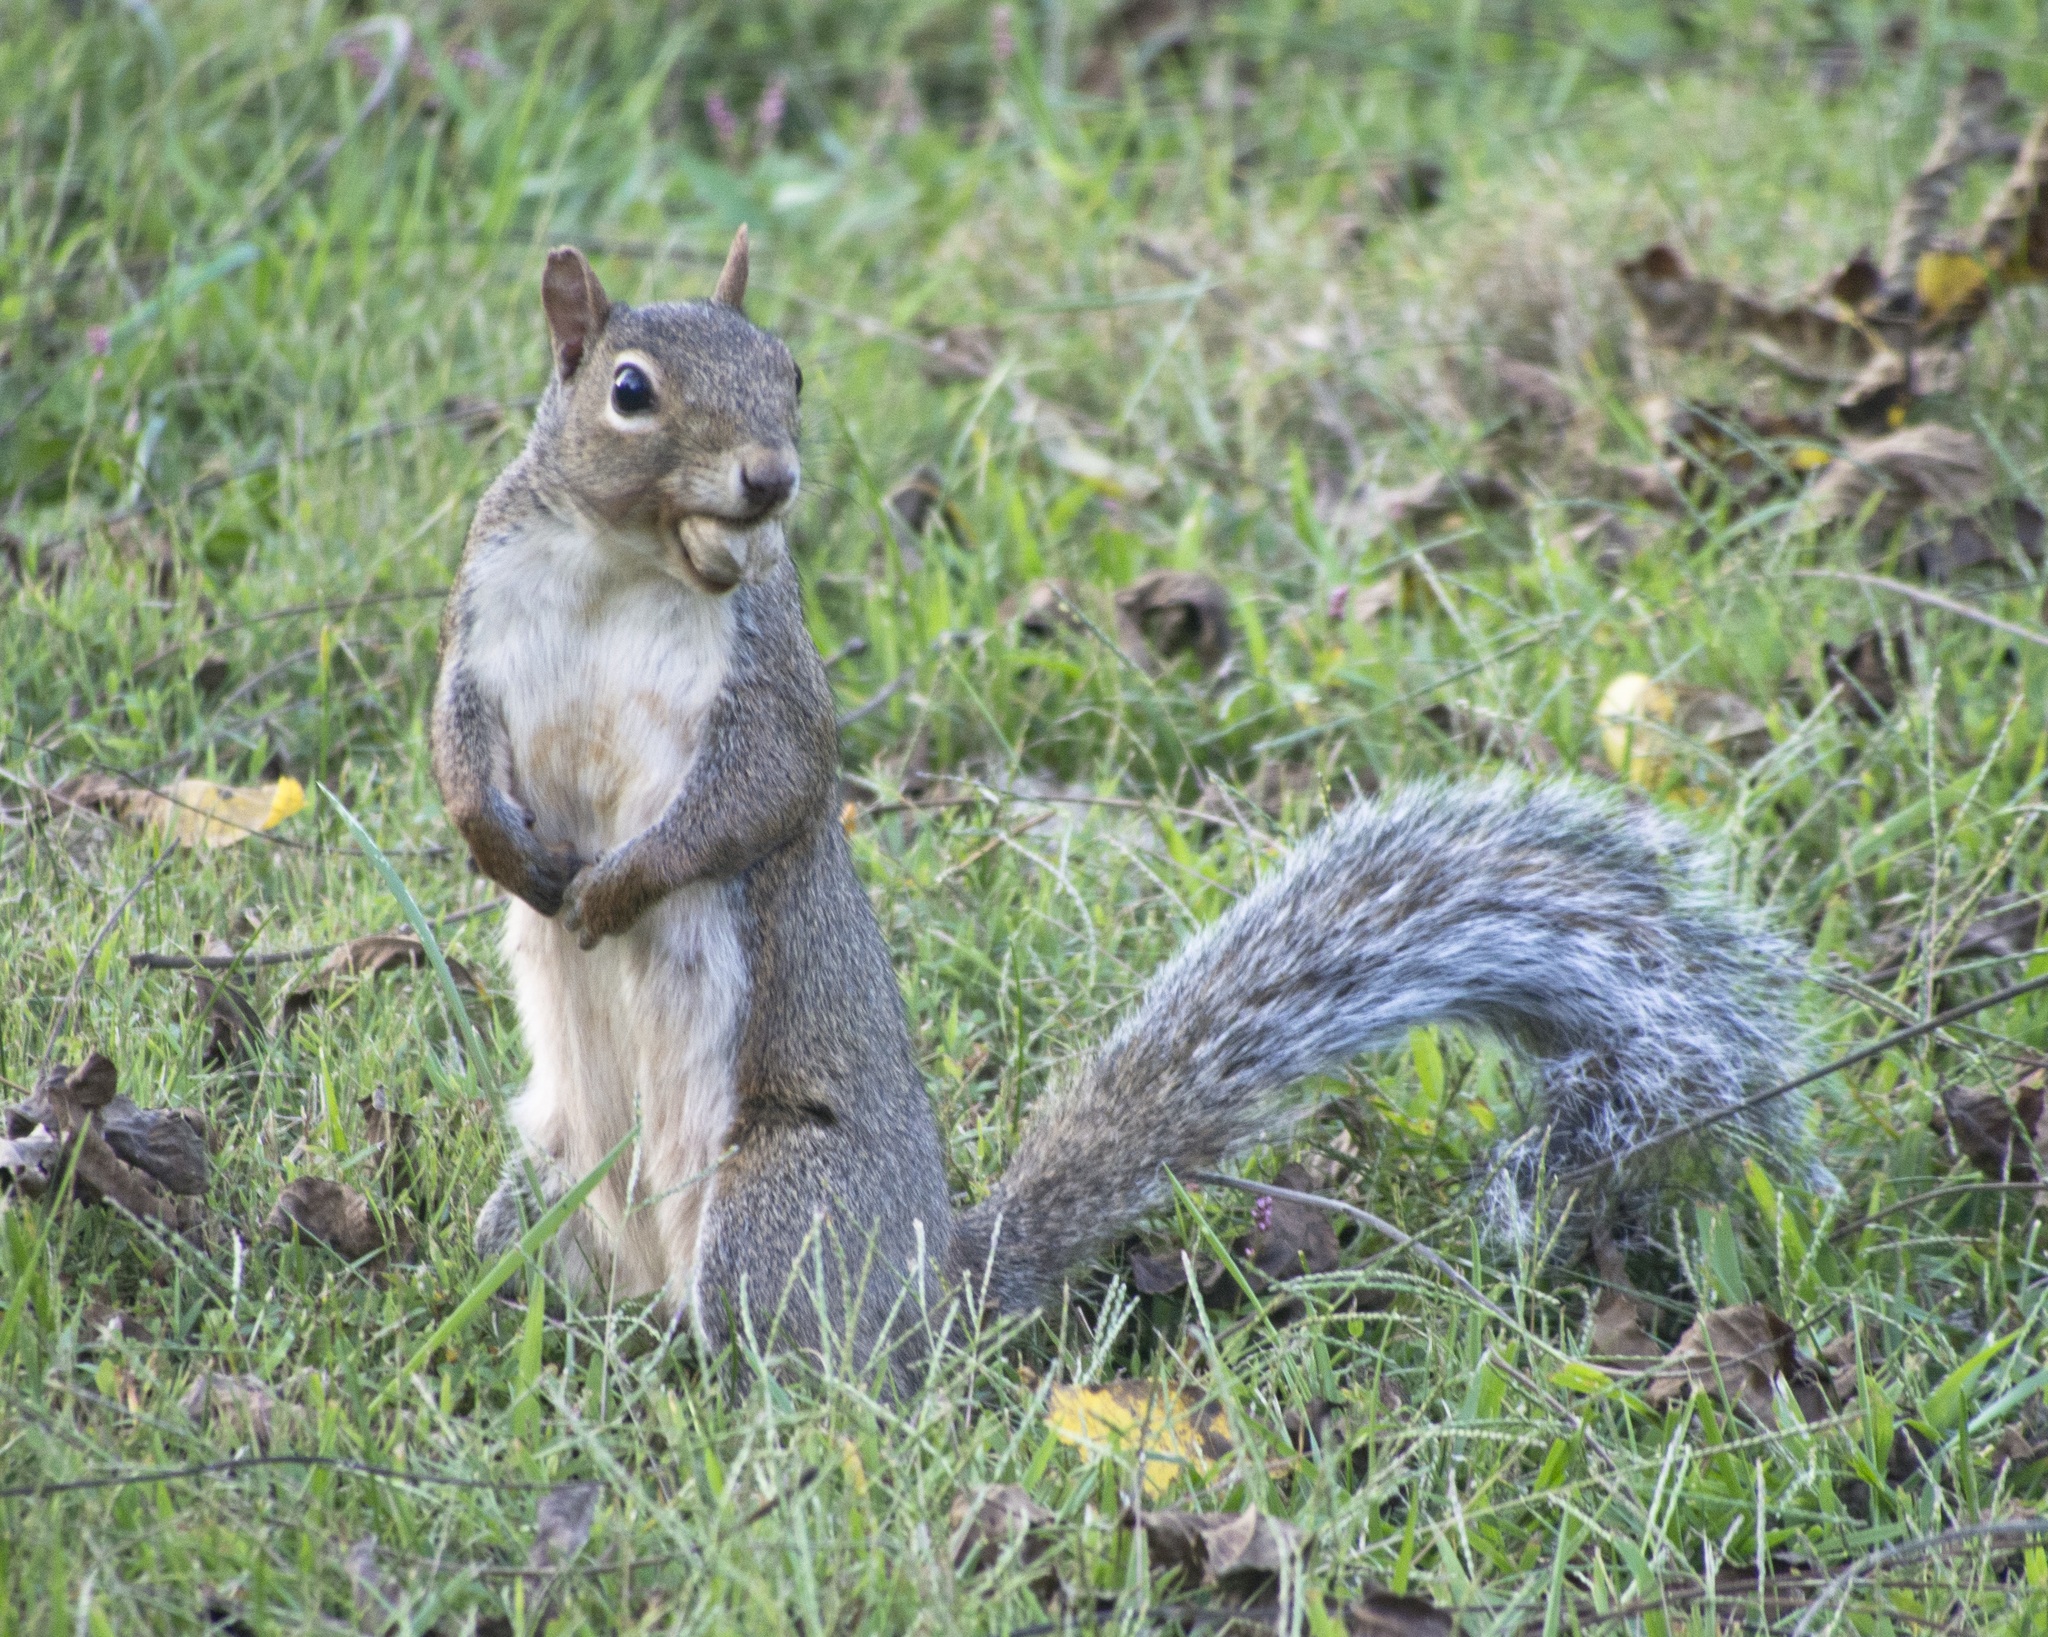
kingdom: Animalia
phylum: Chordata
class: Mammalia
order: Rodentia
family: Sciuridae
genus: Sciurus
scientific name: Sciurus carolinensis
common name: Eastern gray squirrel
